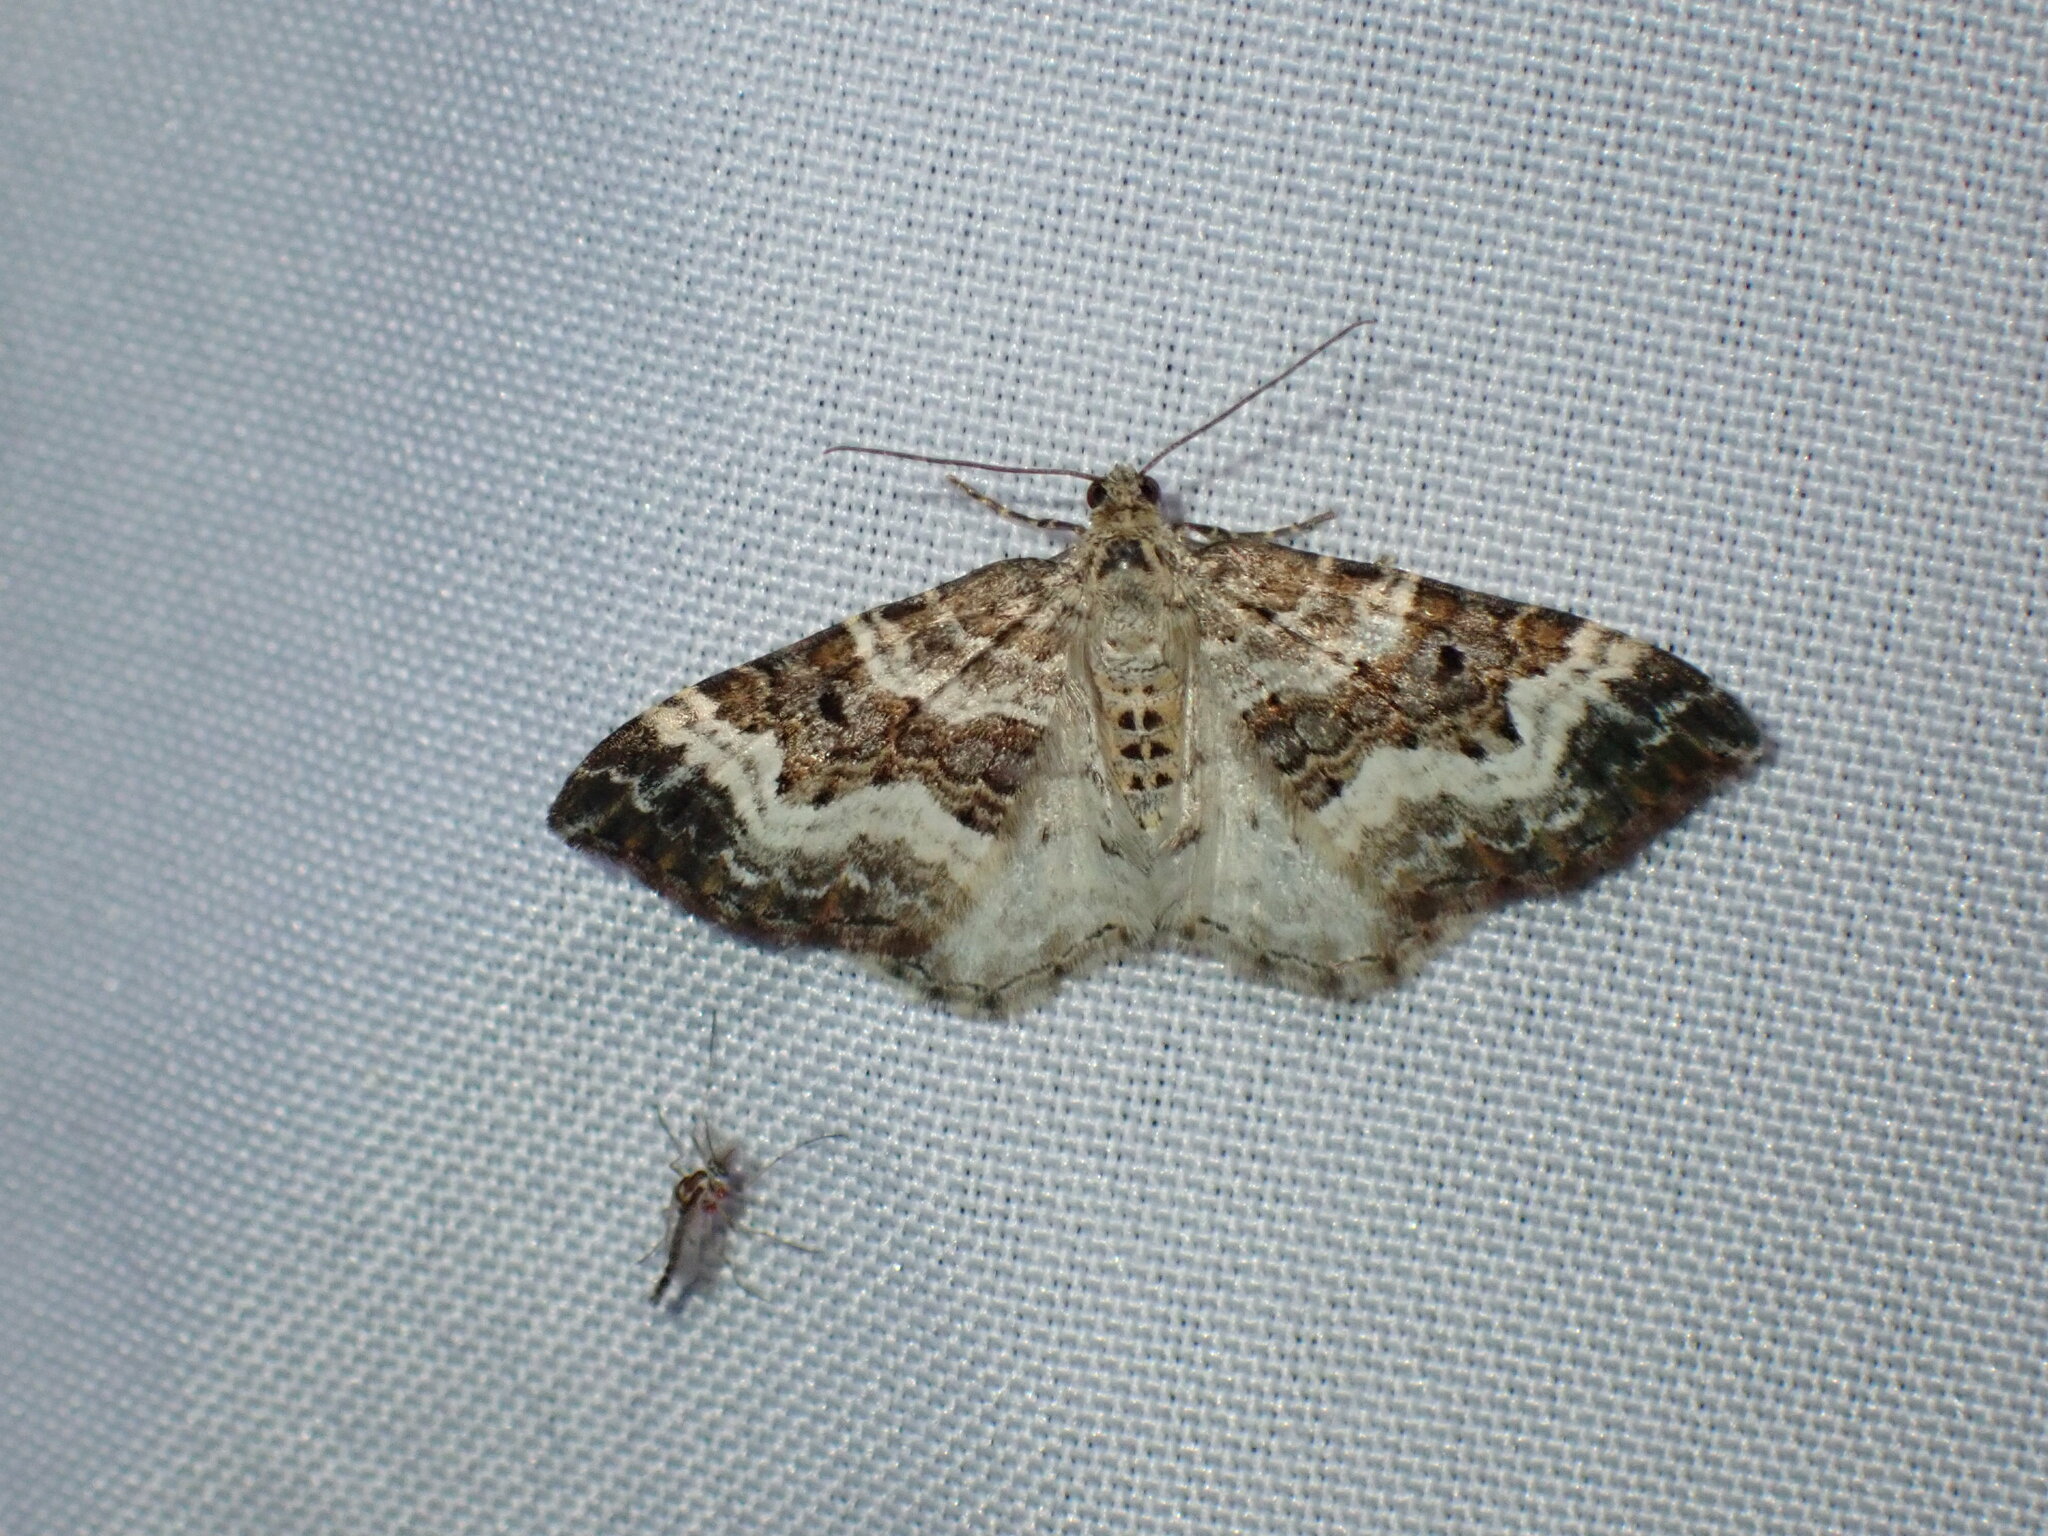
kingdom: Animalia
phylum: Arthropoda
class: Insecta
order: Lepidoptera
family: Geometridae
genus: Epirrhoe
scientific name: Epirrhoe alternata
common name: Common carpet
